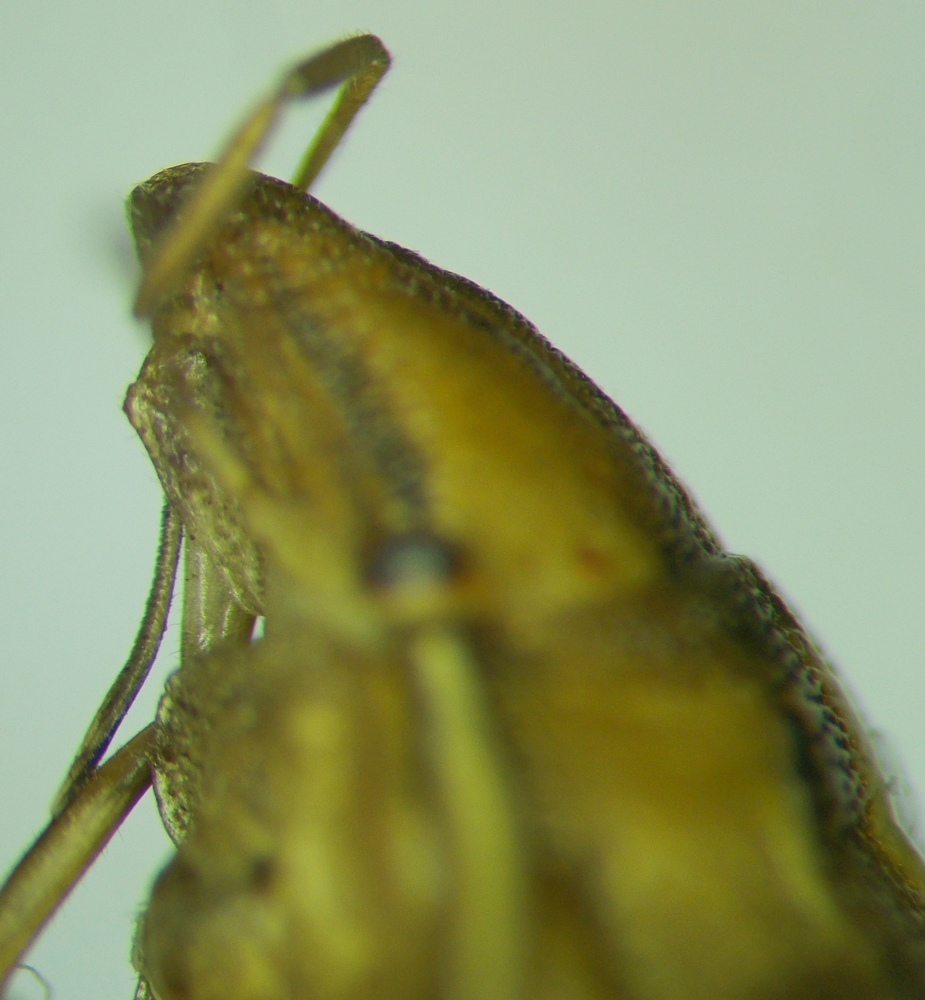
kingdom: Animalia
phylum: Arthropoda
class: Insecta
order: Hemiptera
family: Pentatomidae
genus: Aelia
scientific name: Aelia
